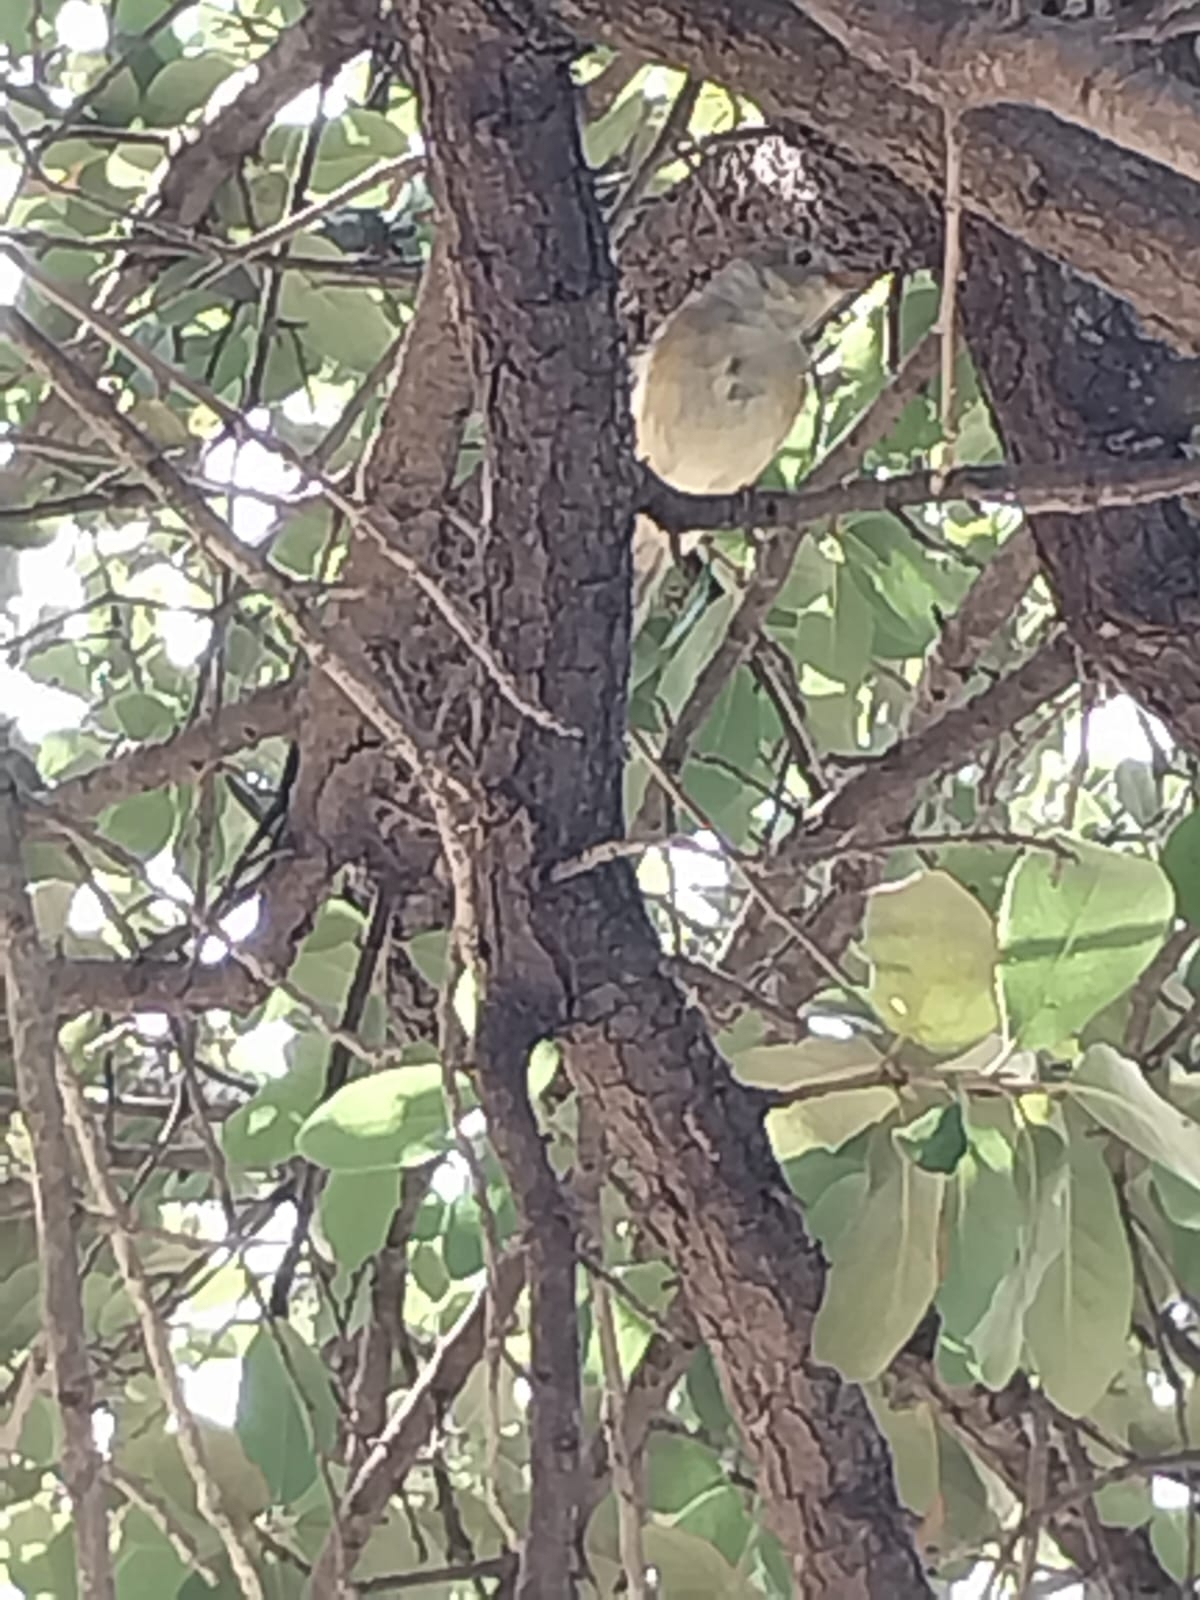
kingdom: Animalia
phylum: Chordata
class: Aves
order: Passeriformes
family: Regulidae
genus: Regulus
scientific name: Regulus calendula
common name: Ruby-crowned kinglet
